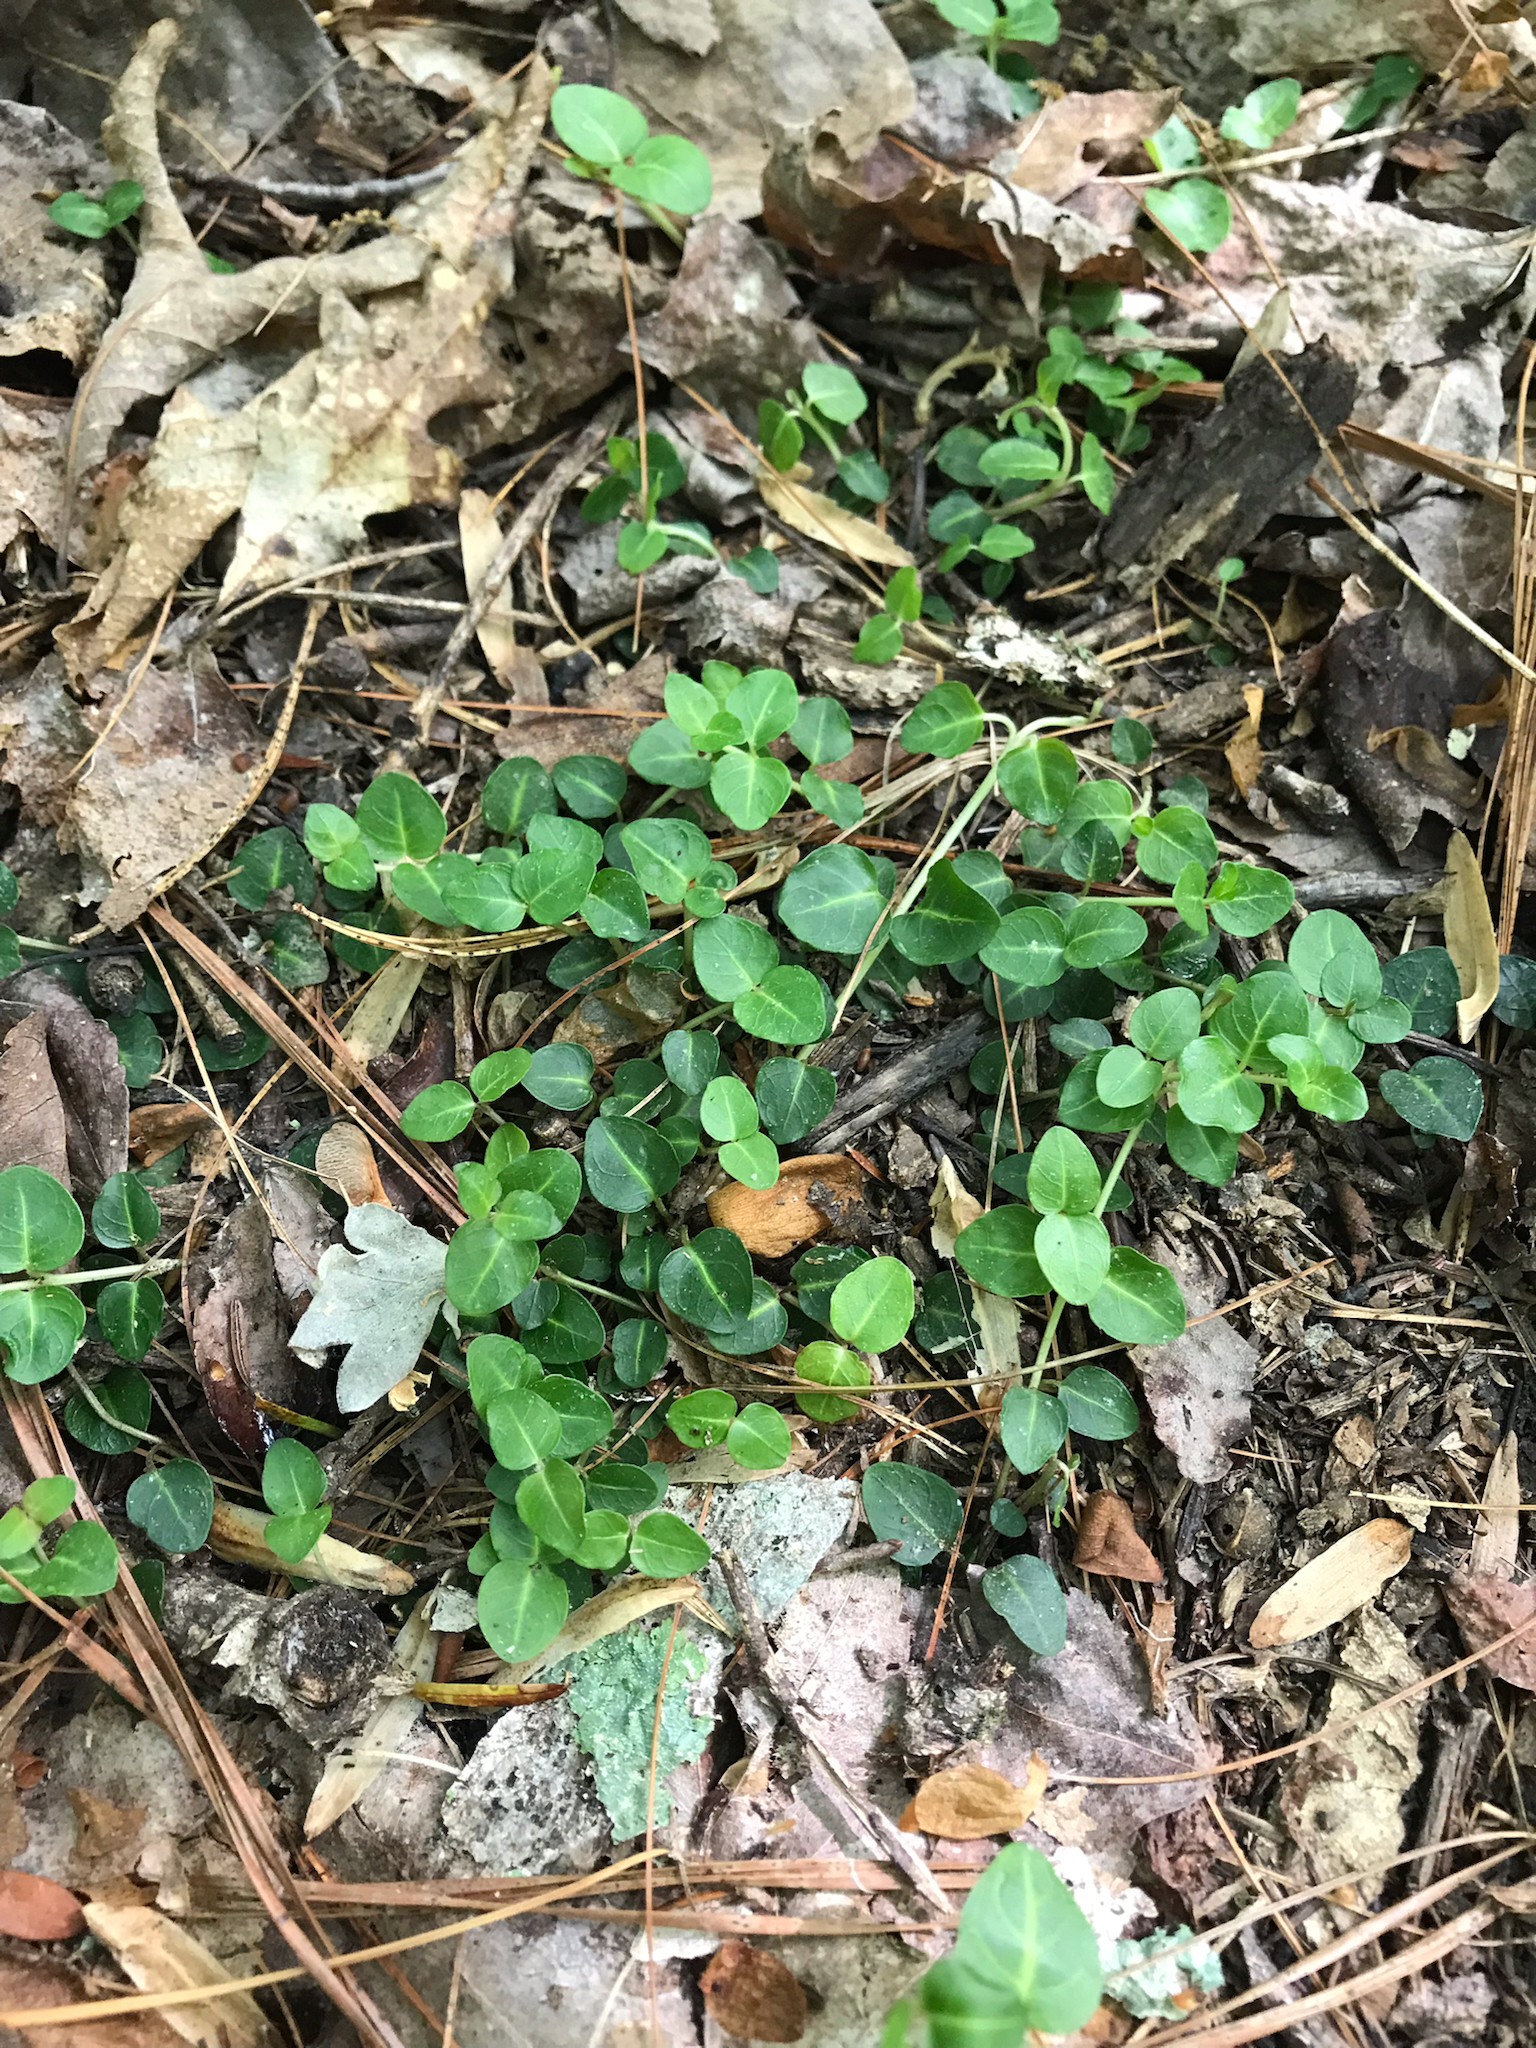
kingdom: Plantae
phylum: Tracheophyta
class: Magnoliopsida
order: Gentianales
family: Rubiaceae
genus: Mitchella
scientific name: Mitchella repens
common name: Partridge-berry
